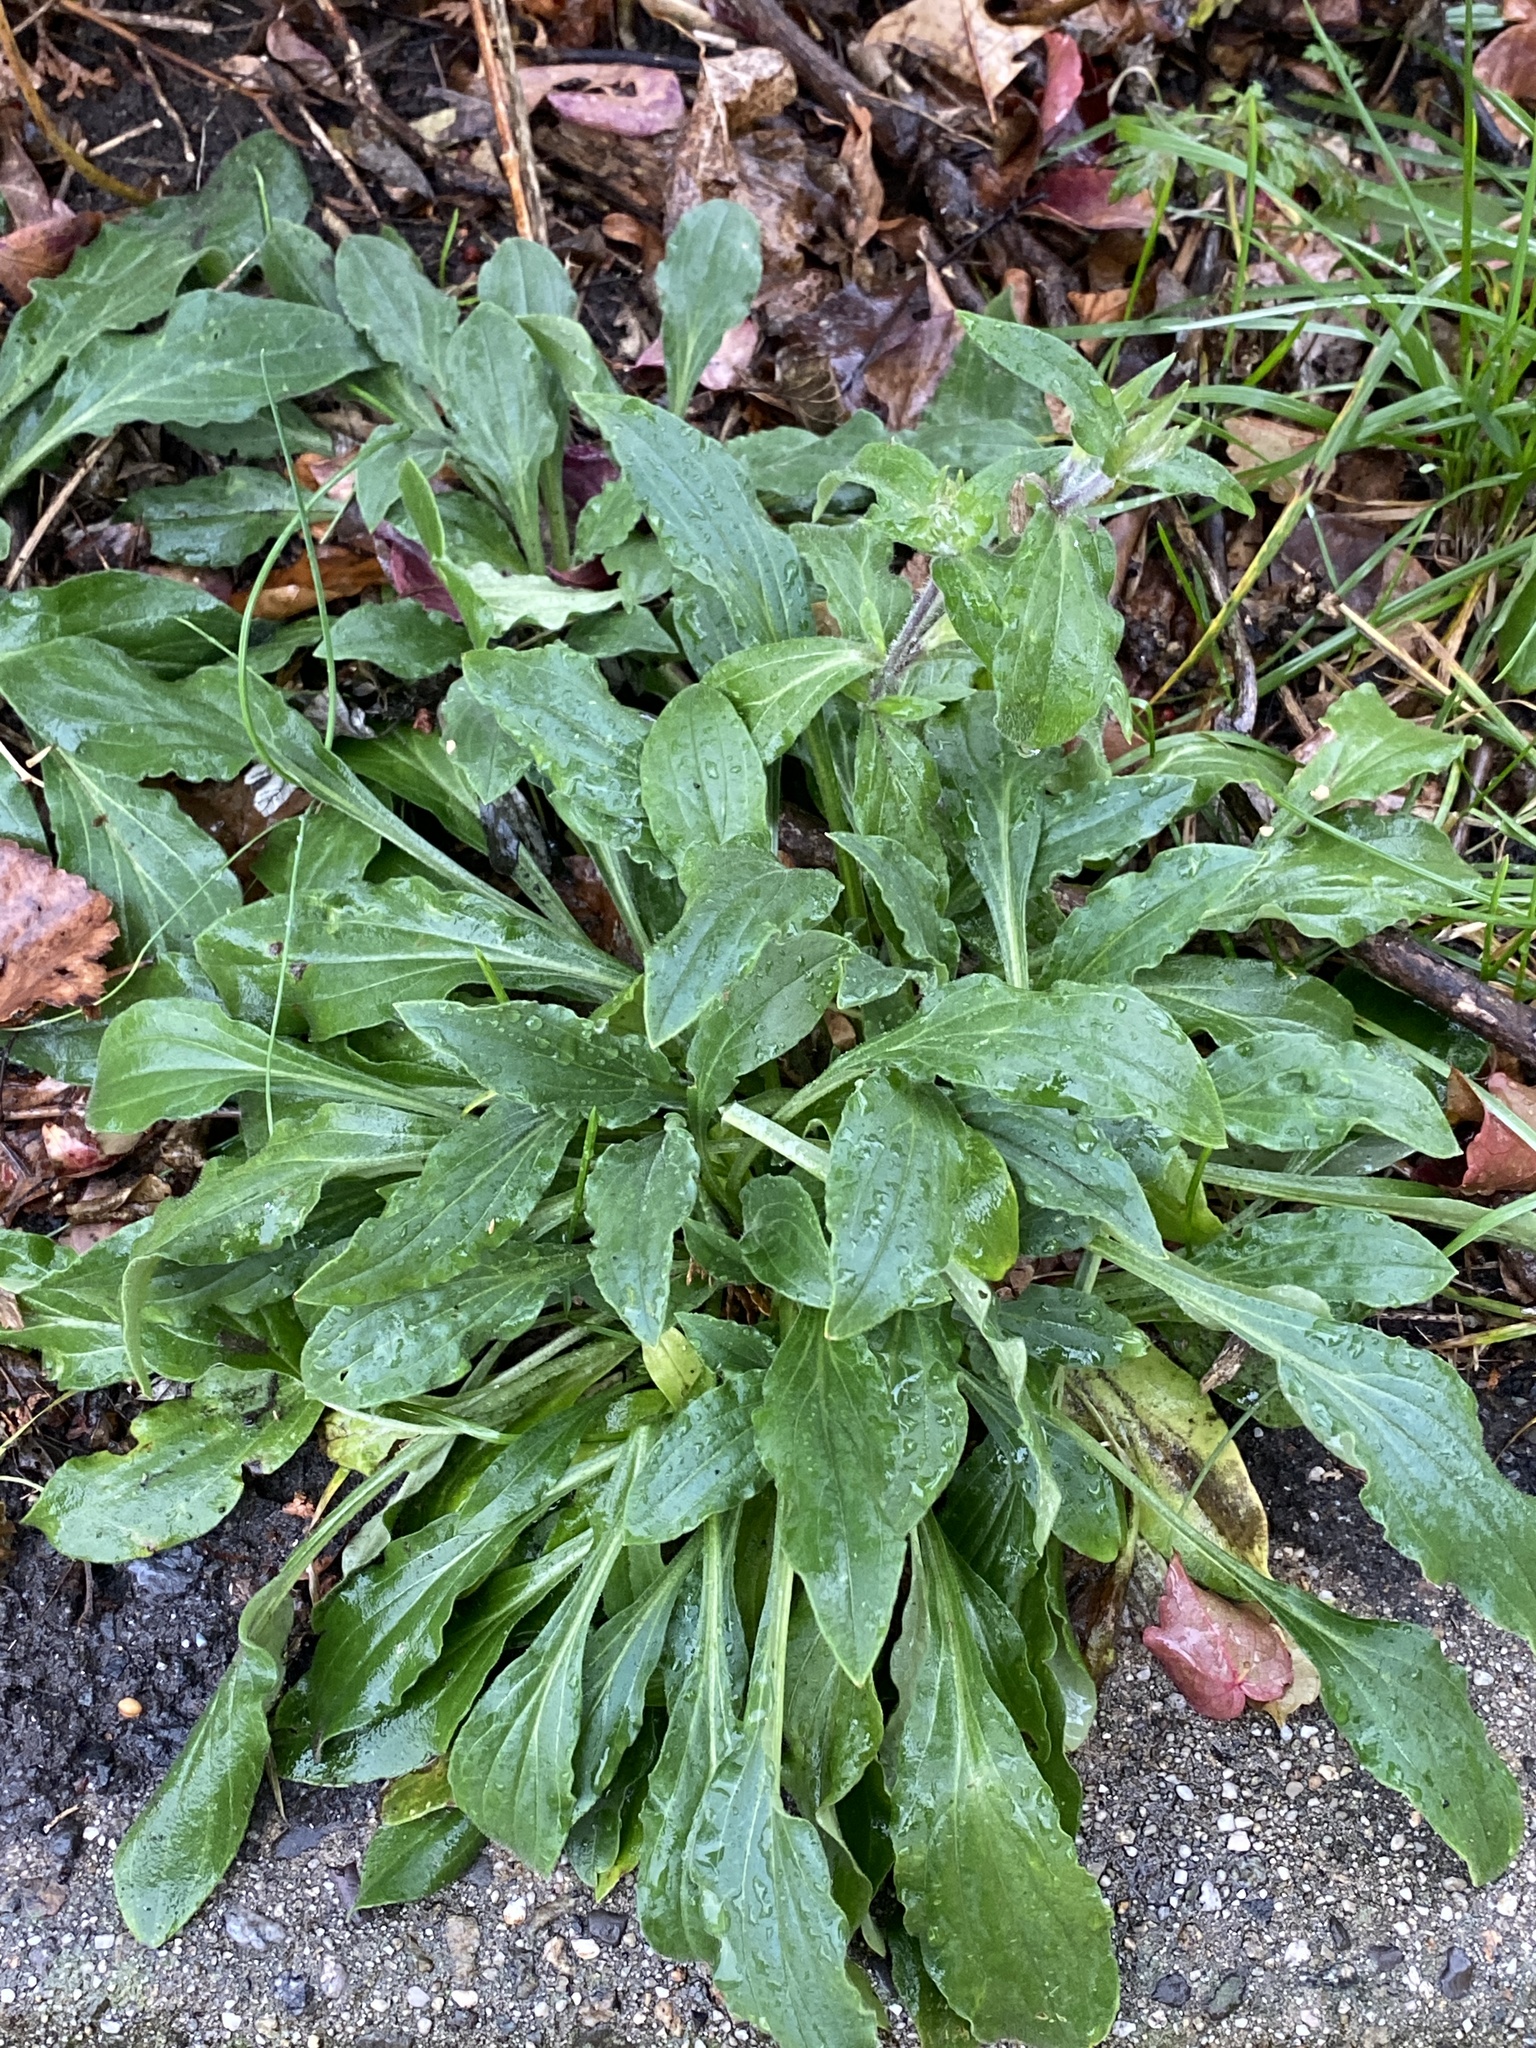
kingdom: Plantae
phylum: Tracheophyta
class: Magnoliopsida
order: Caryophyllales
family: Caryophyllaceae
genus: Silene
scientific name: Silene latifolia
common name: White campion
